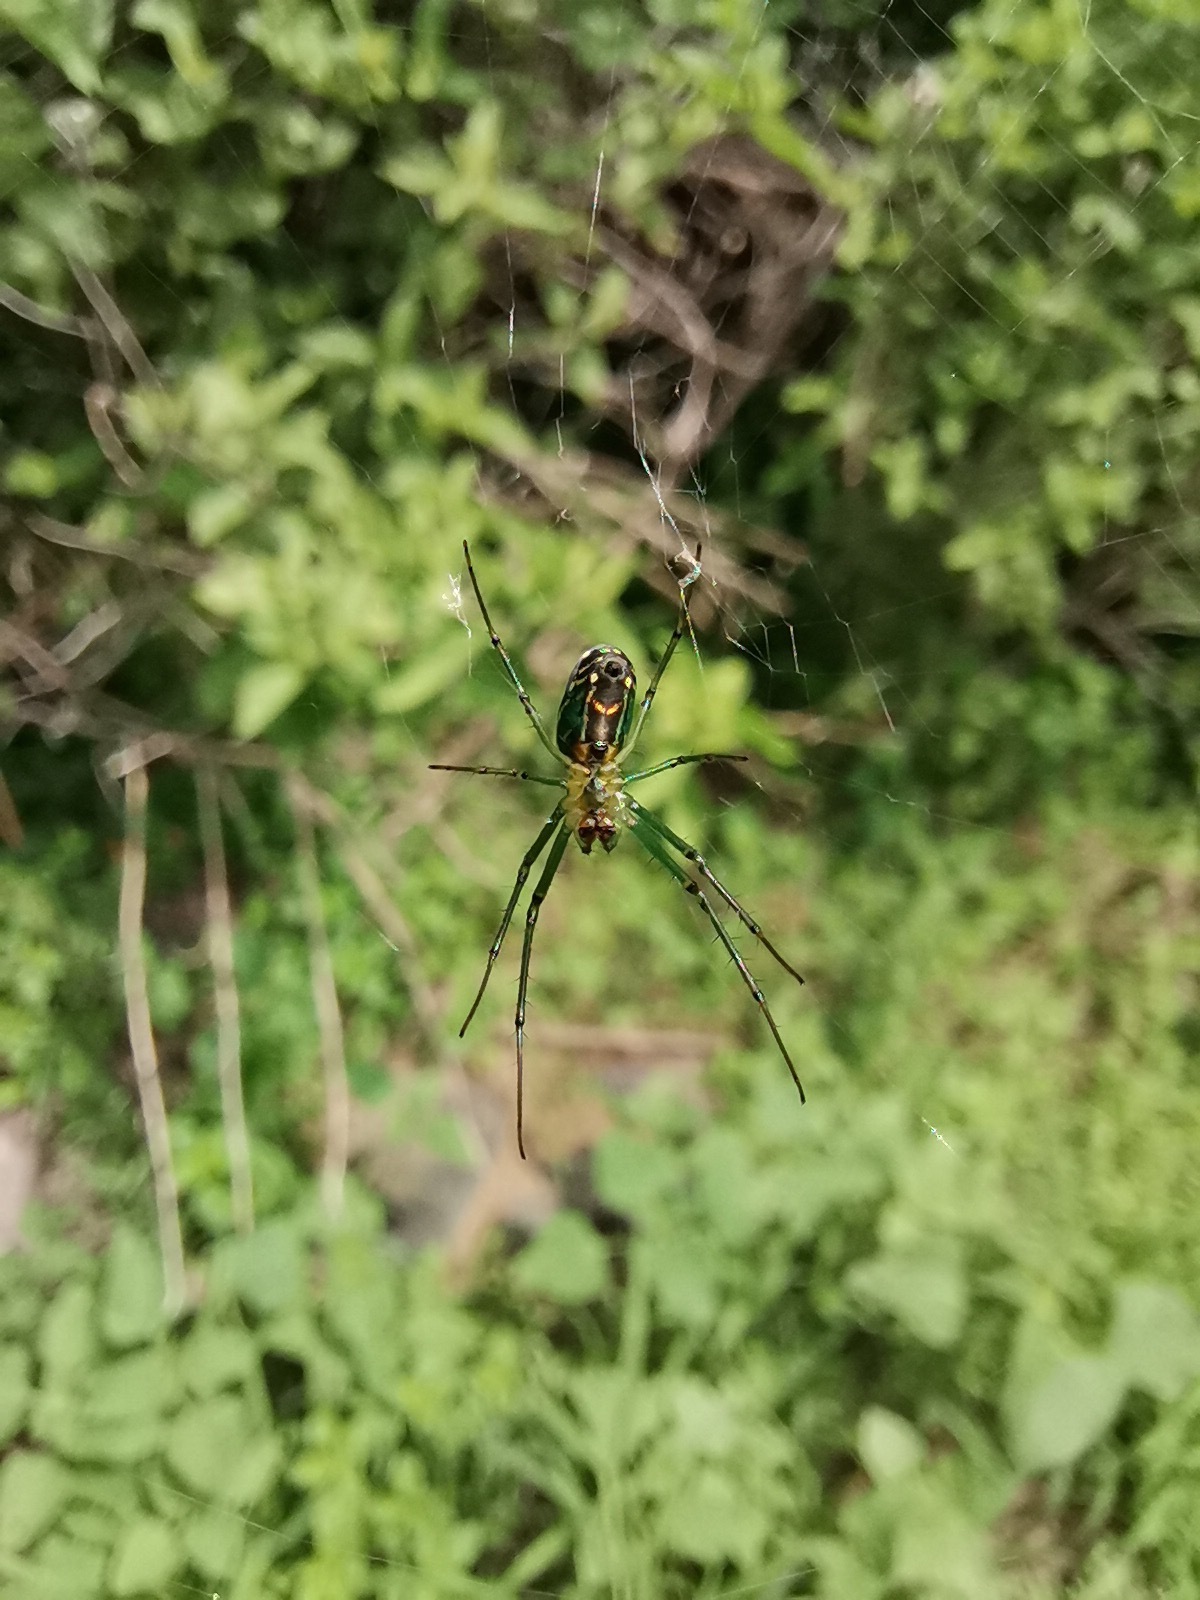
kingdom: Animalia
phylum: Arthropoda
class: Arachnida
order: Araneae
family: Tetragnathidae
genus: Leucauge
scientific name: Leucauge mariana
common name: Longjawed orb weavers
